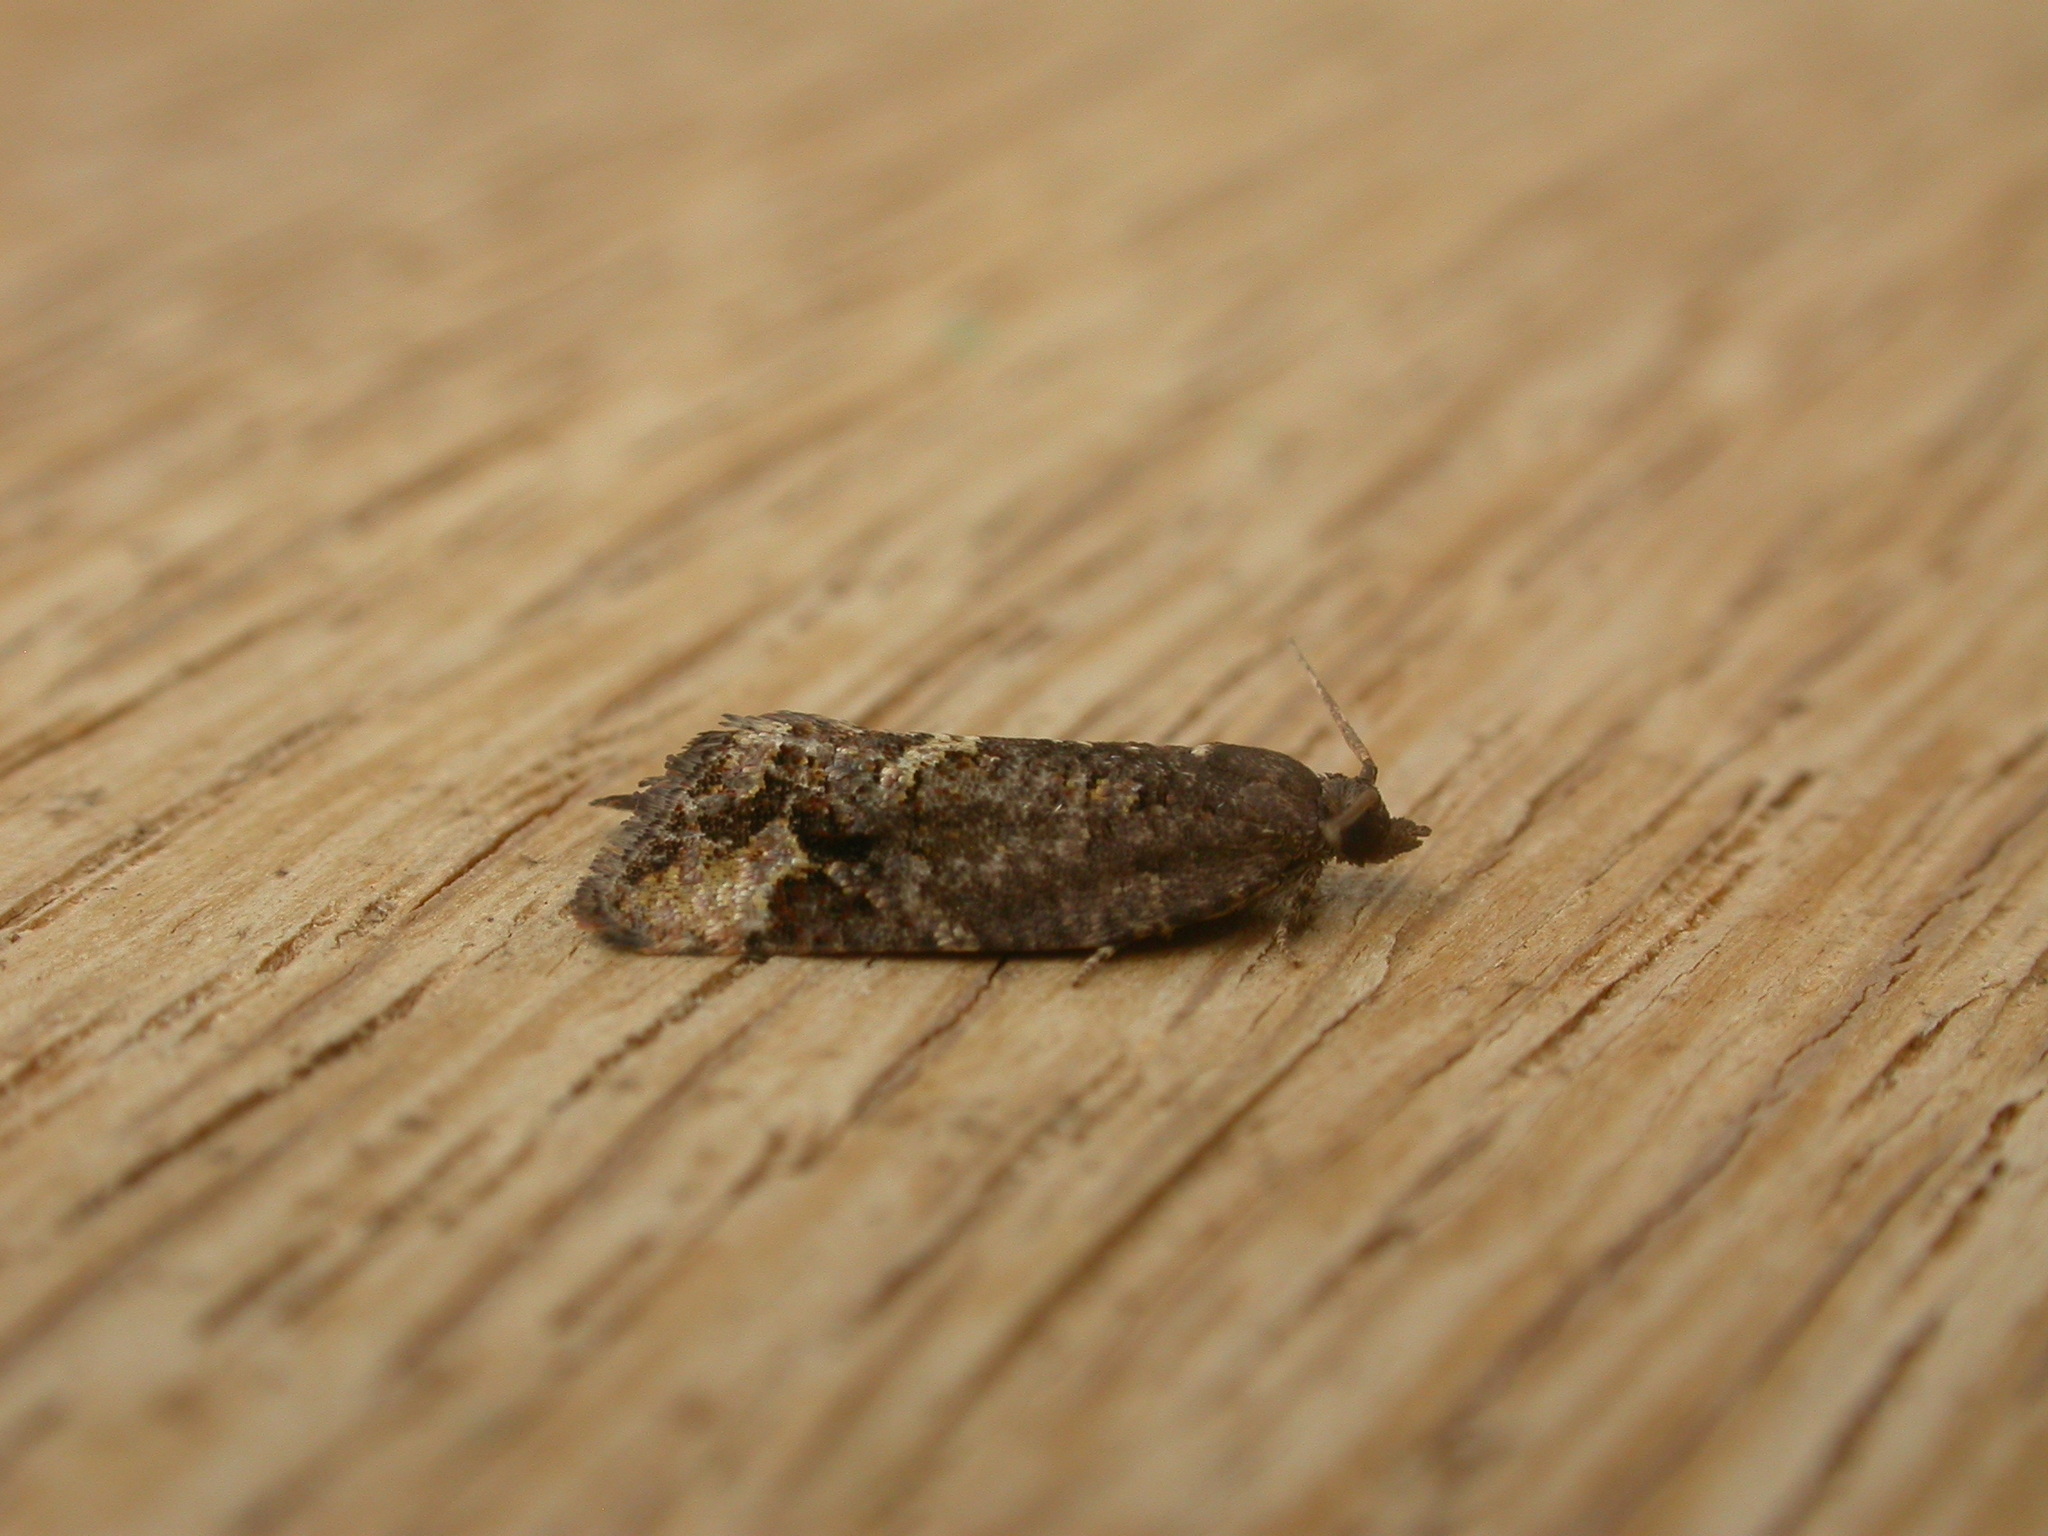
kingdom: Animalia
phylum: Arthropoda
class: Insecta
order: Lepidoptera
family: Tortricidae
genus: Epitymbia
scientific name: Epitymbia alaudana
